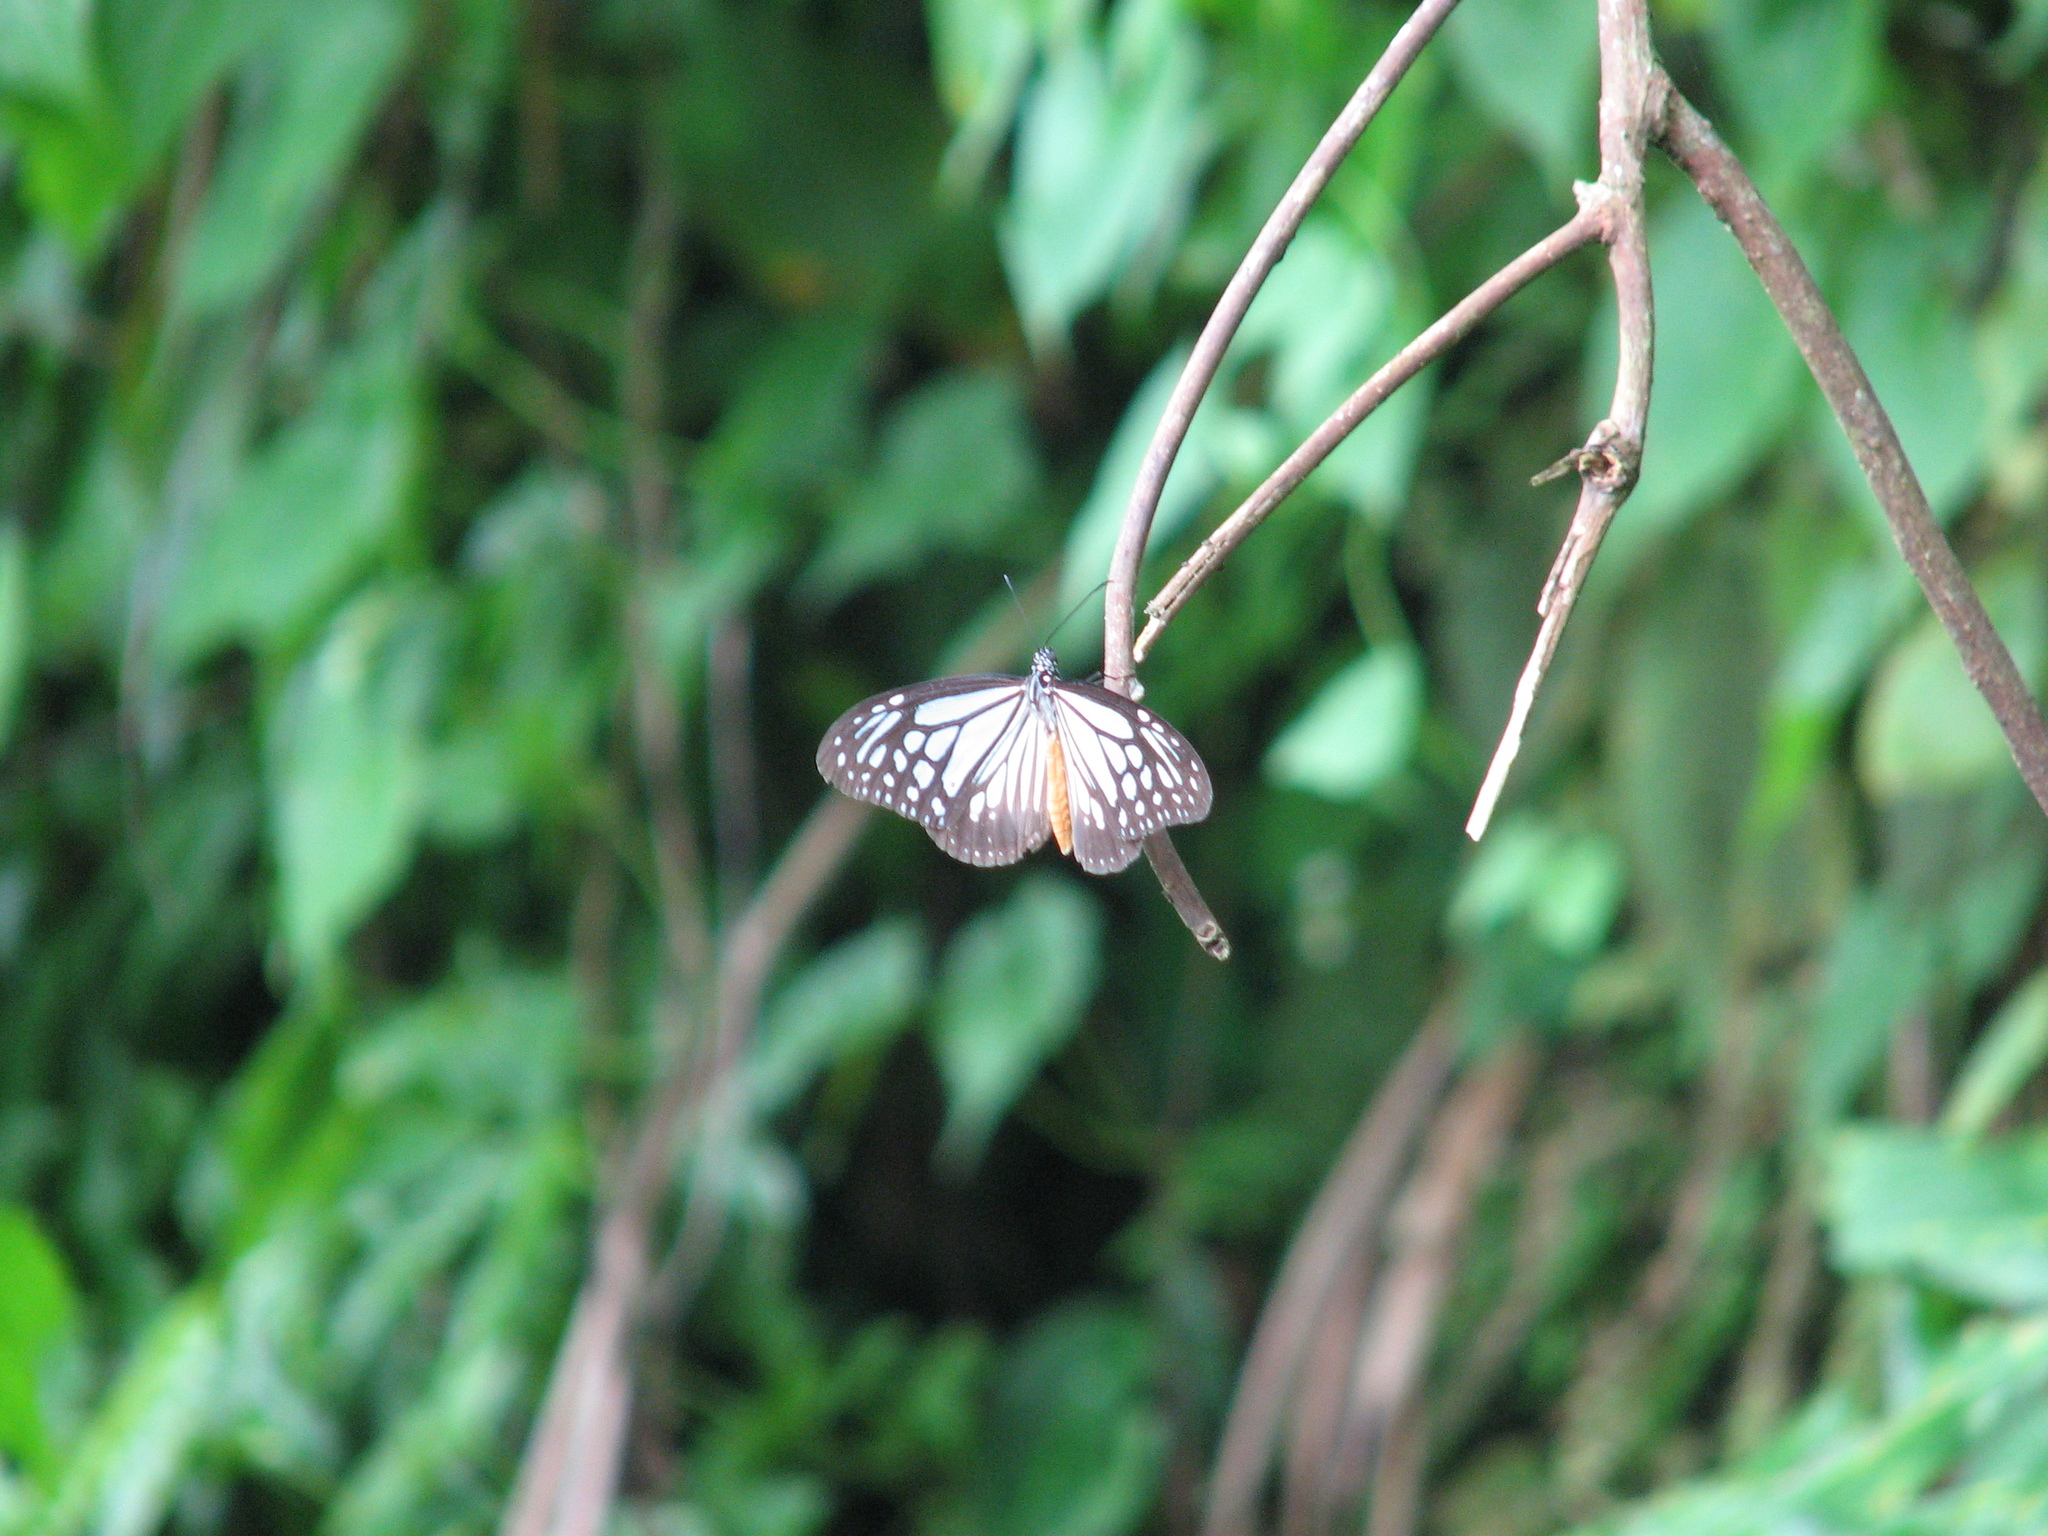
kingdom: Animalia
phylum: Arthropoda
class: Insecta
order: Lepidoptera
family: Nymphalidae
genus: Parantica
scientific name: Parantica melaneus
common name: Chocolate tiger
